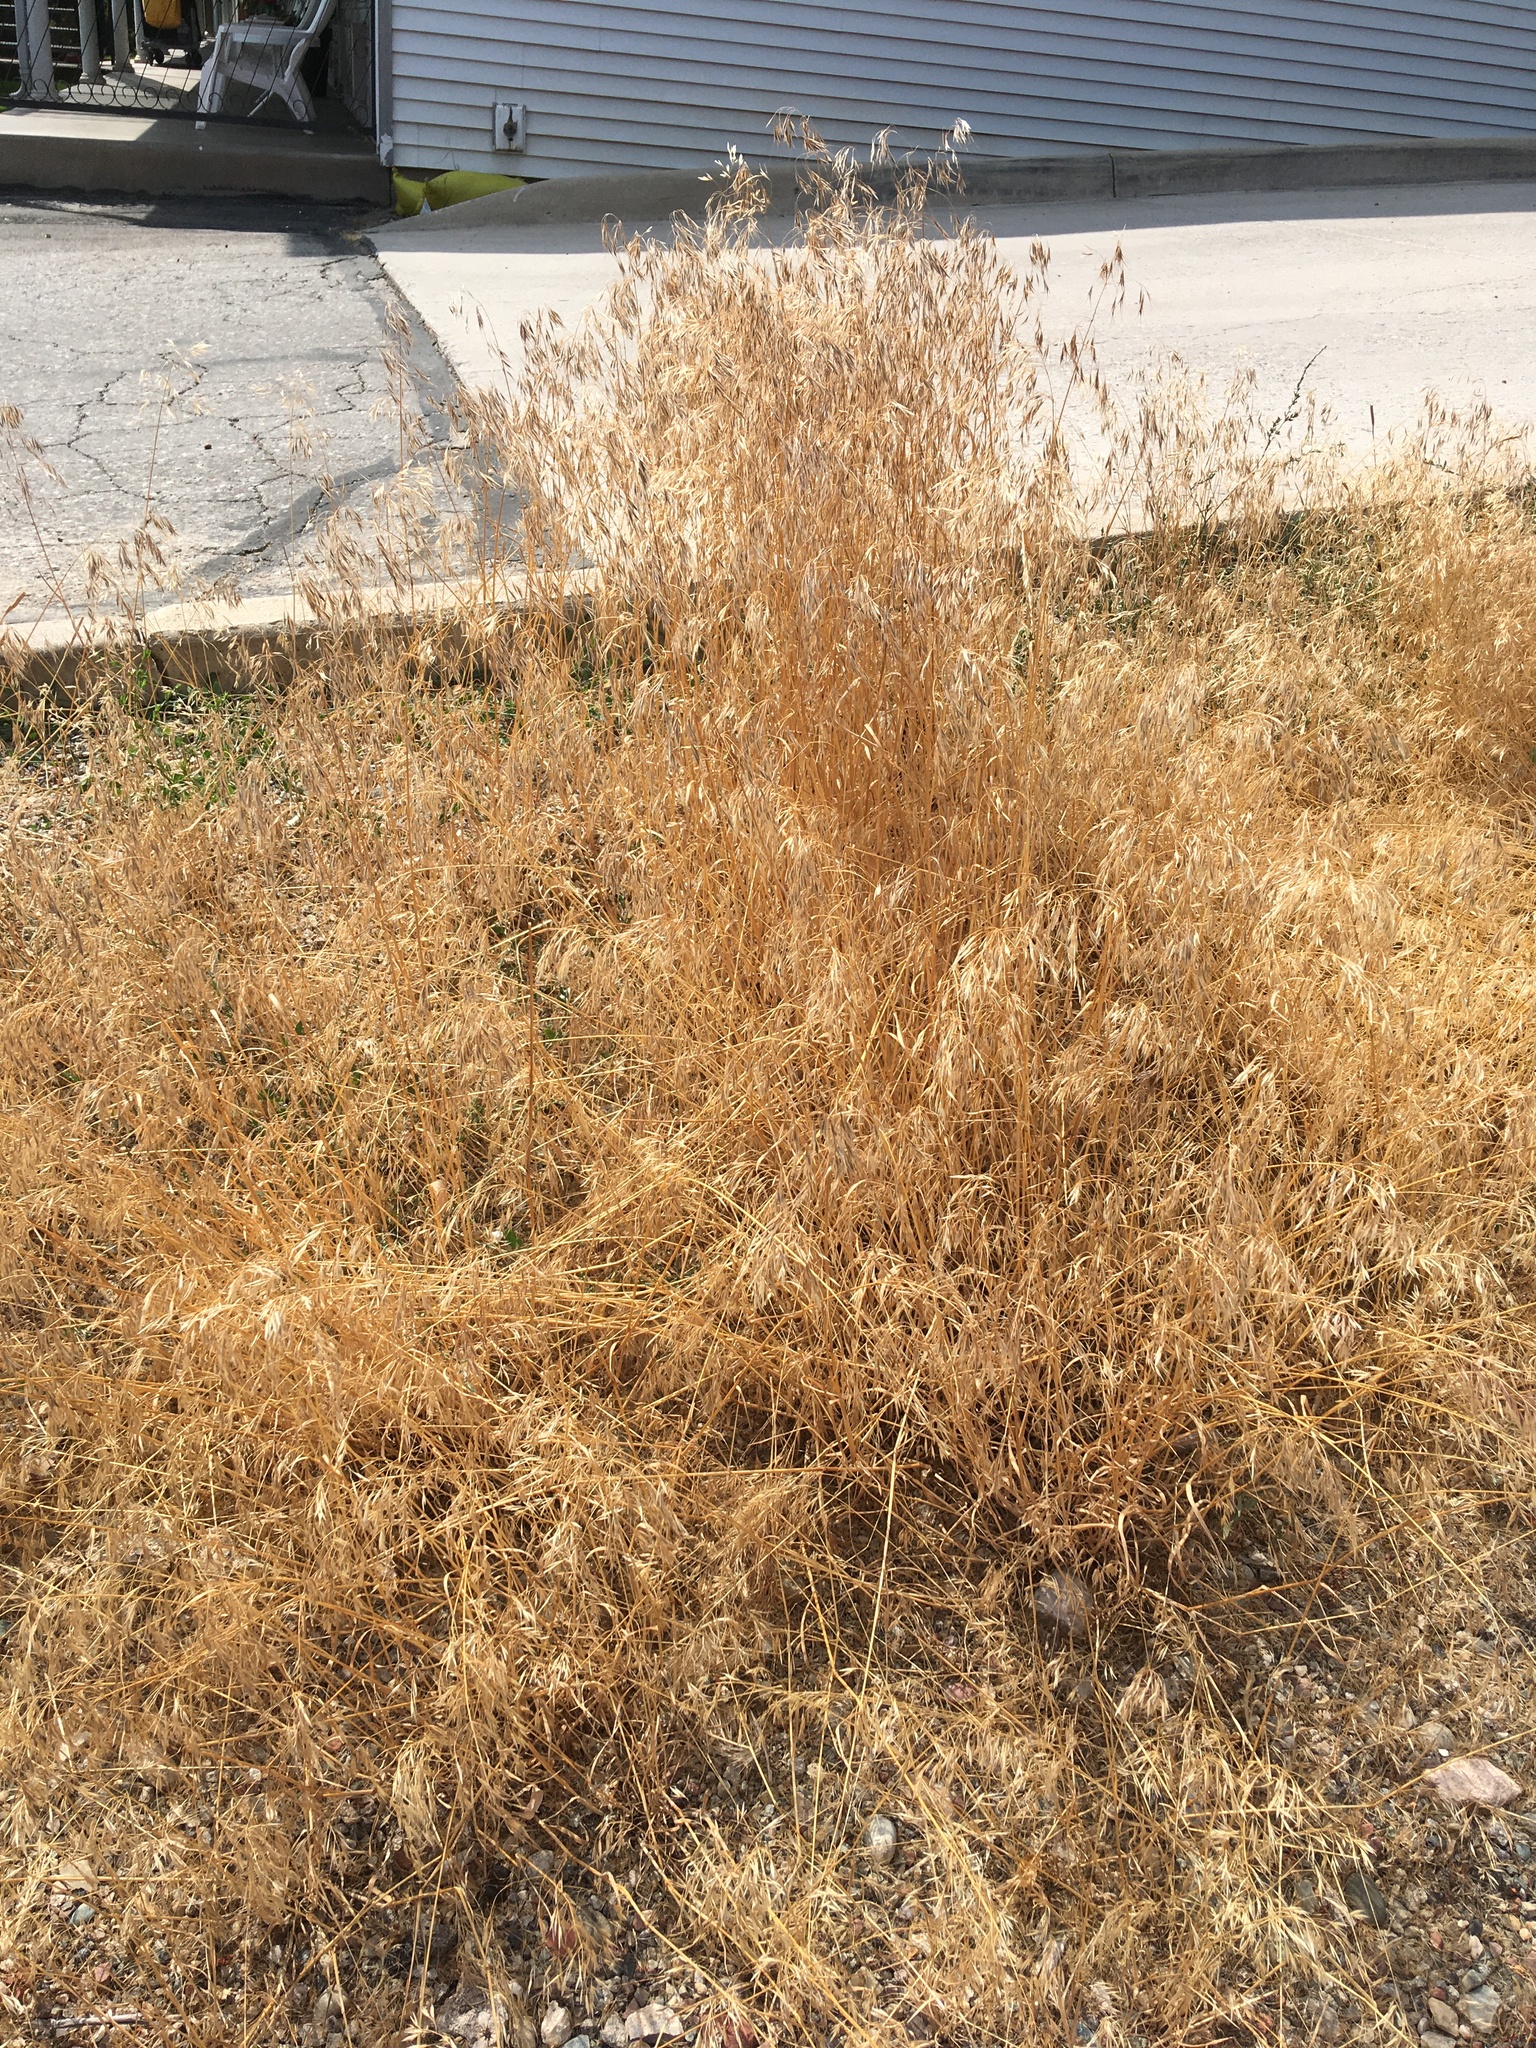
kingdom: Plantae
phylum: Tracheophyta
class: Liliopsida
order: Poales
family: Poaceae
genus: Bromus
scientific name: Bromus tectorum
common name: Cheatgrass
